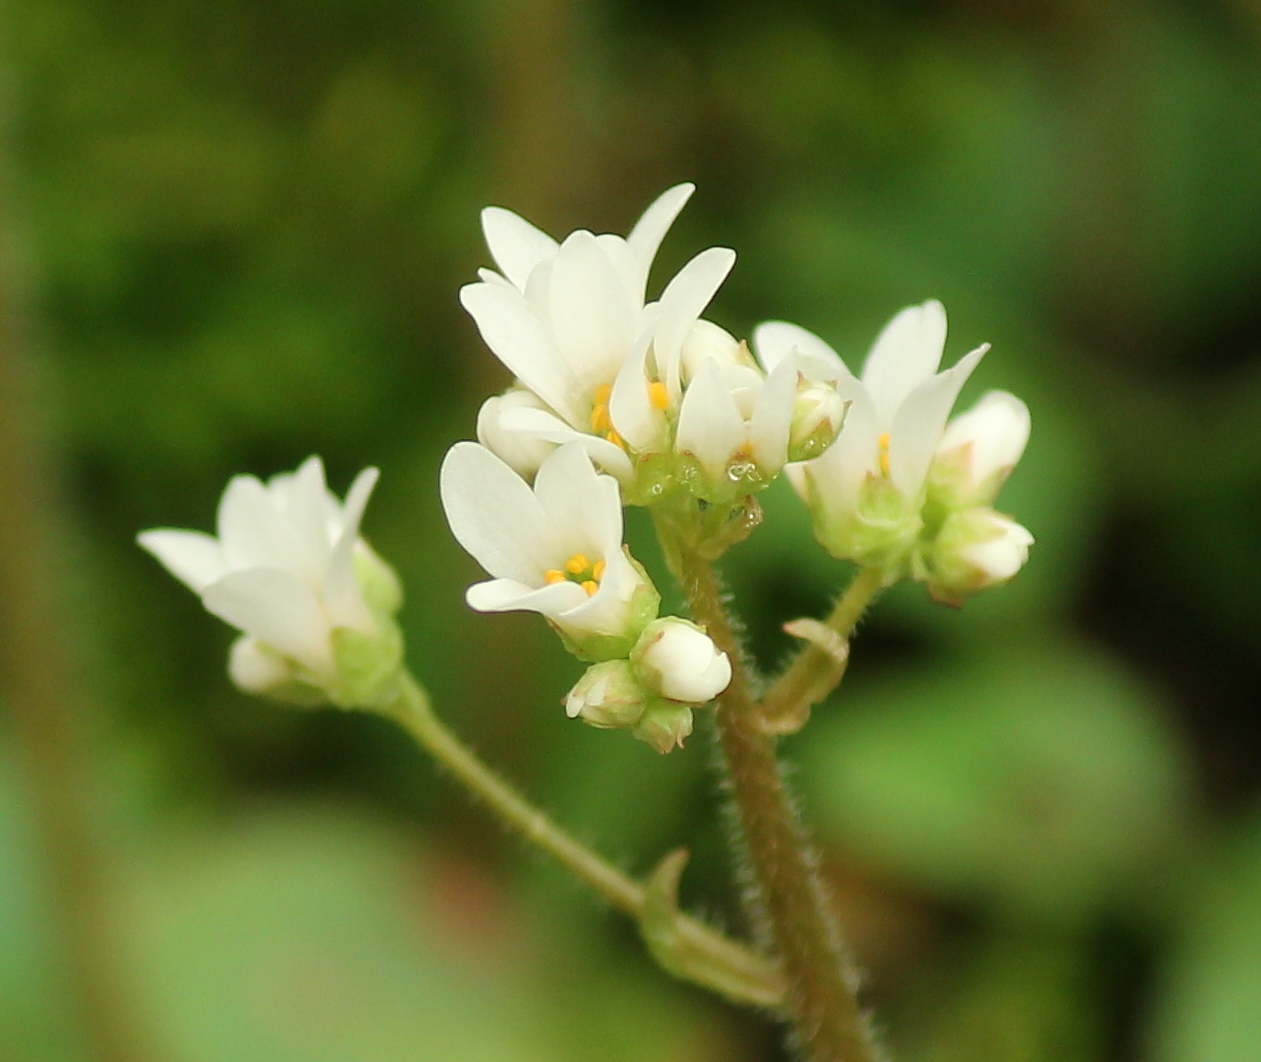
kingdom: Plantae
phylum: Tracheophyta
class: Magnoliopsida
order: Saxifragales
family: Saxifragaceae
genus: Micranthes
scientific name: Micranthes palmeri
